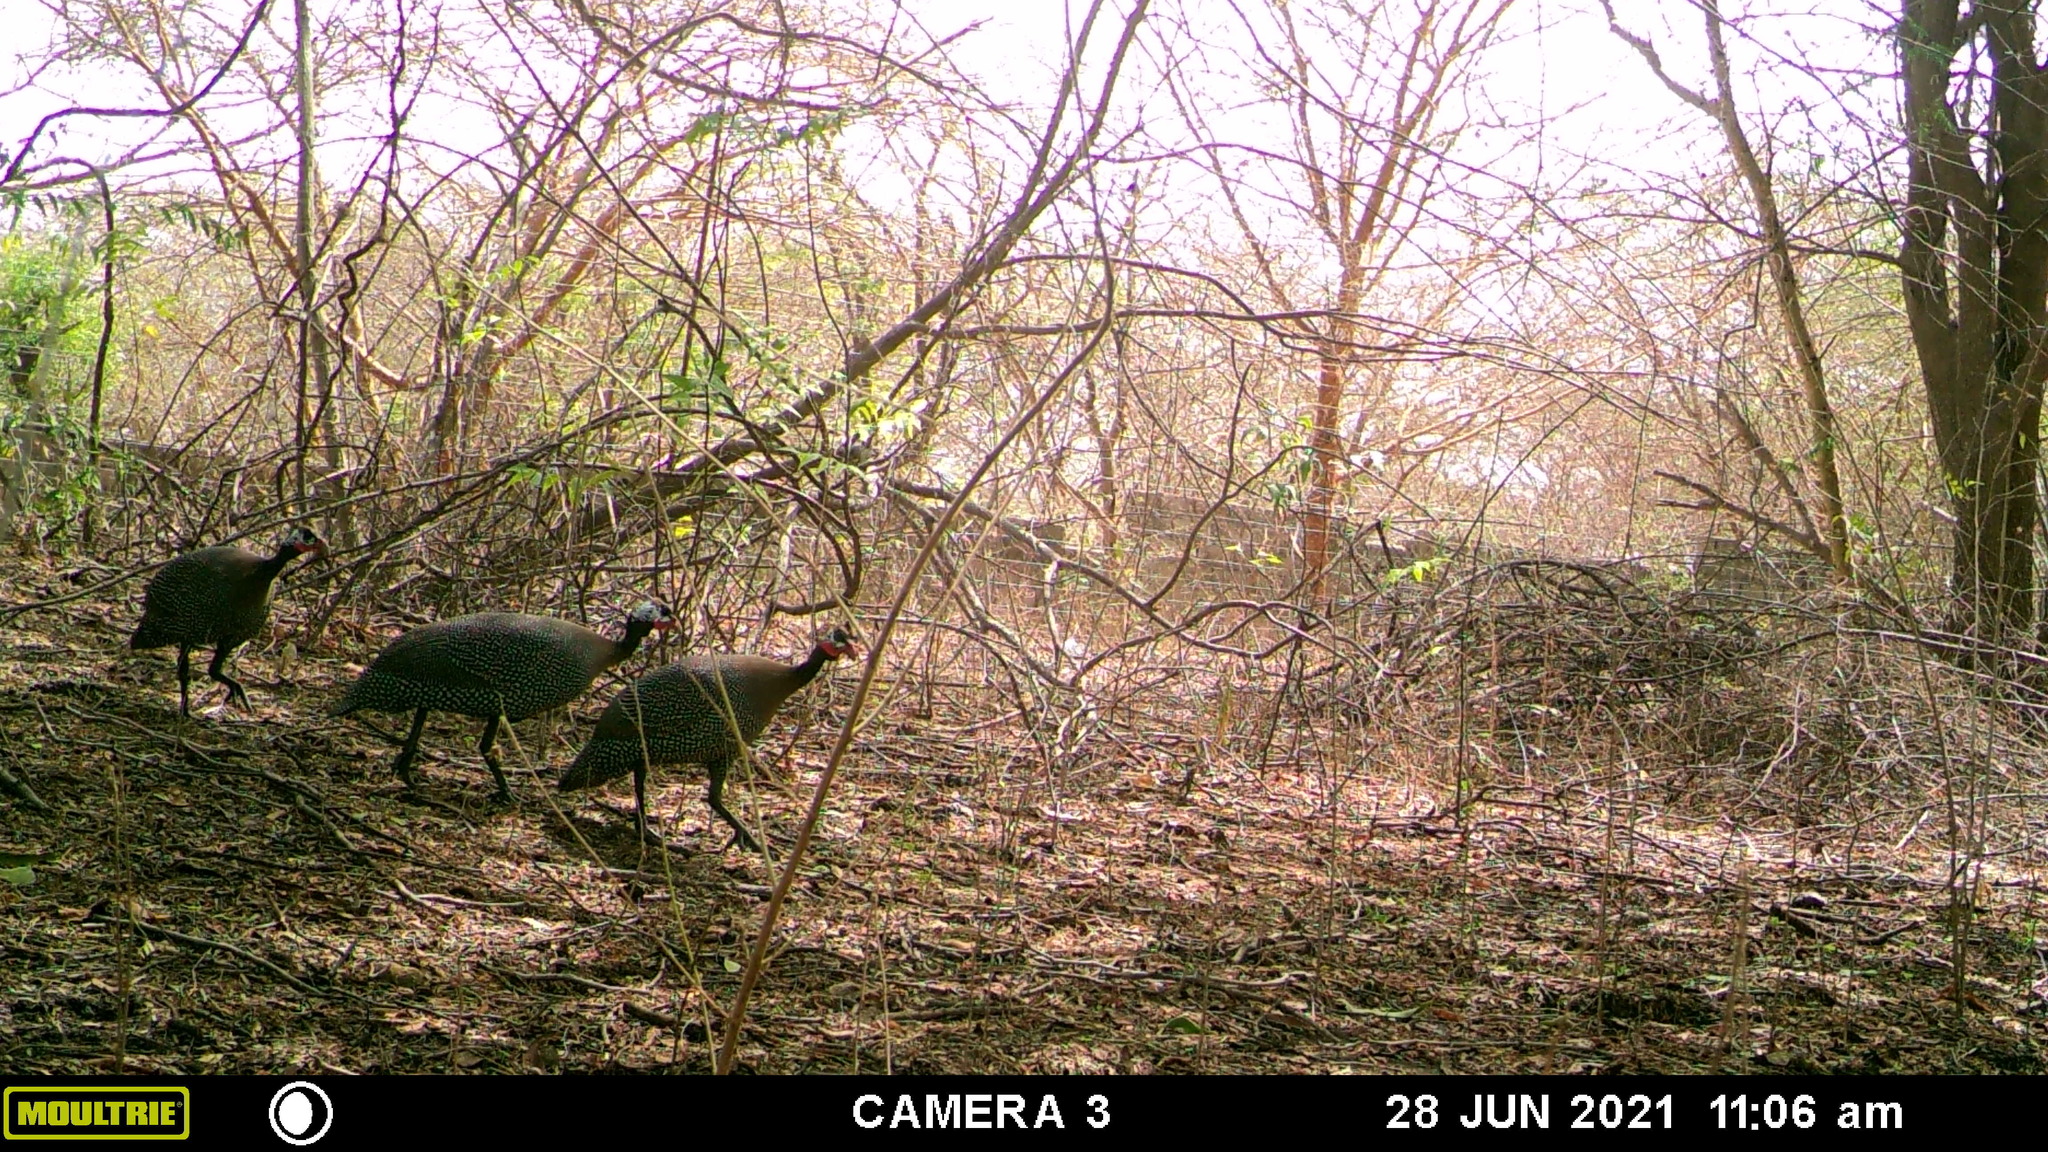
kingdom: Animalia
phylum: Chordata
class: Aves
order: Galliformes
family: Numididae
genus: Numida
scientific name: Numida meleagris
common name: Helmeted guineafowl
